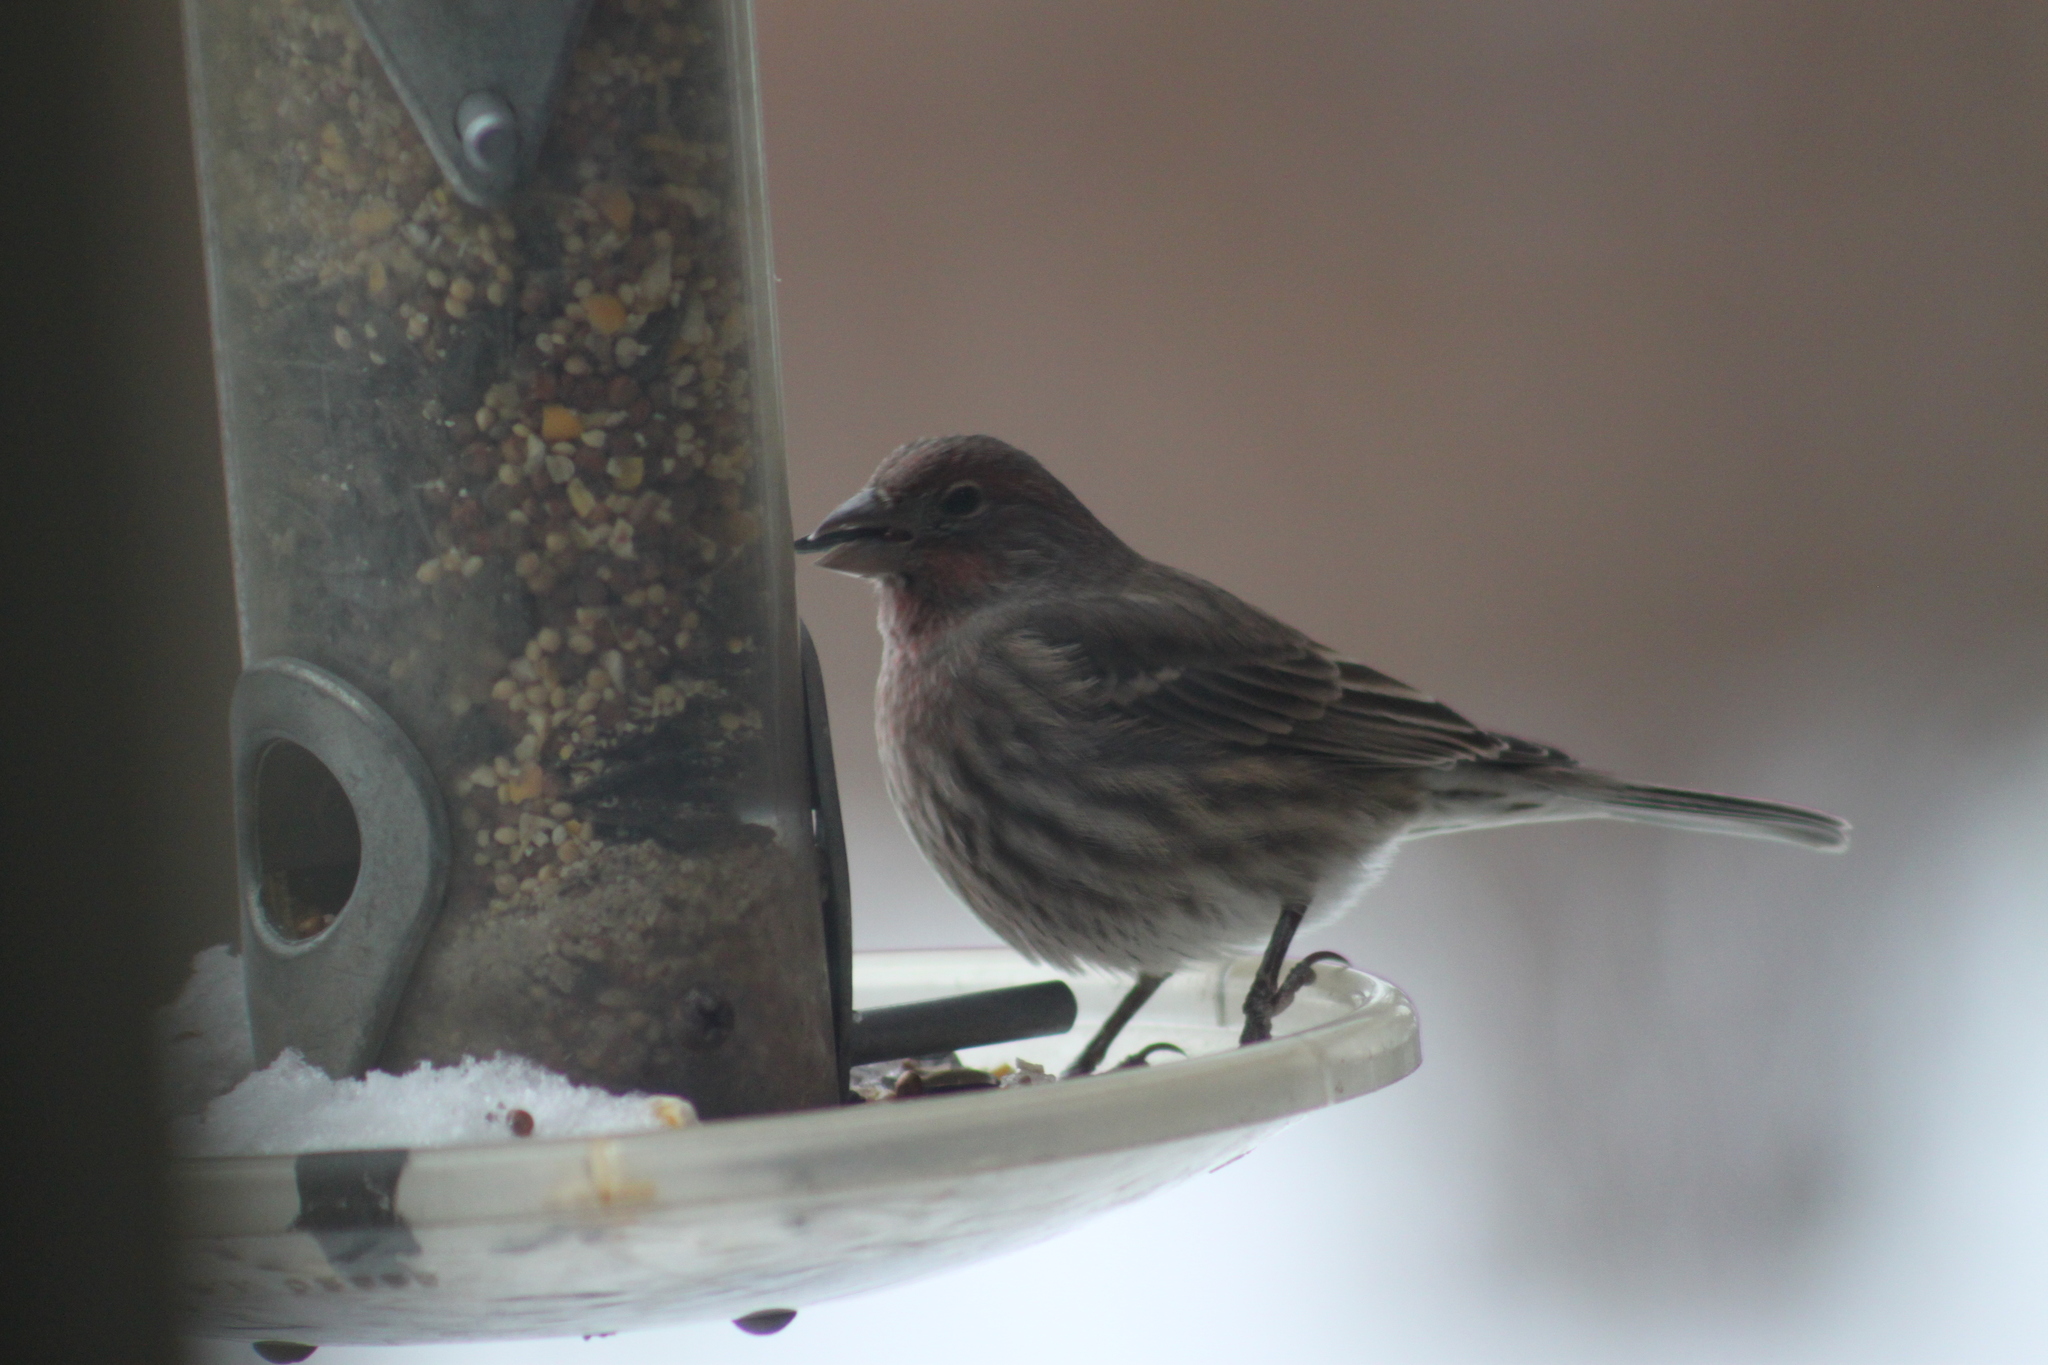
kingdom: Animalia
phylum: Chordata
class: Aves
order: Passeriformes
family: Fringillidae
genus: Haemorhous
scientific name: Haemorhous mexicanus
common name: House finch
